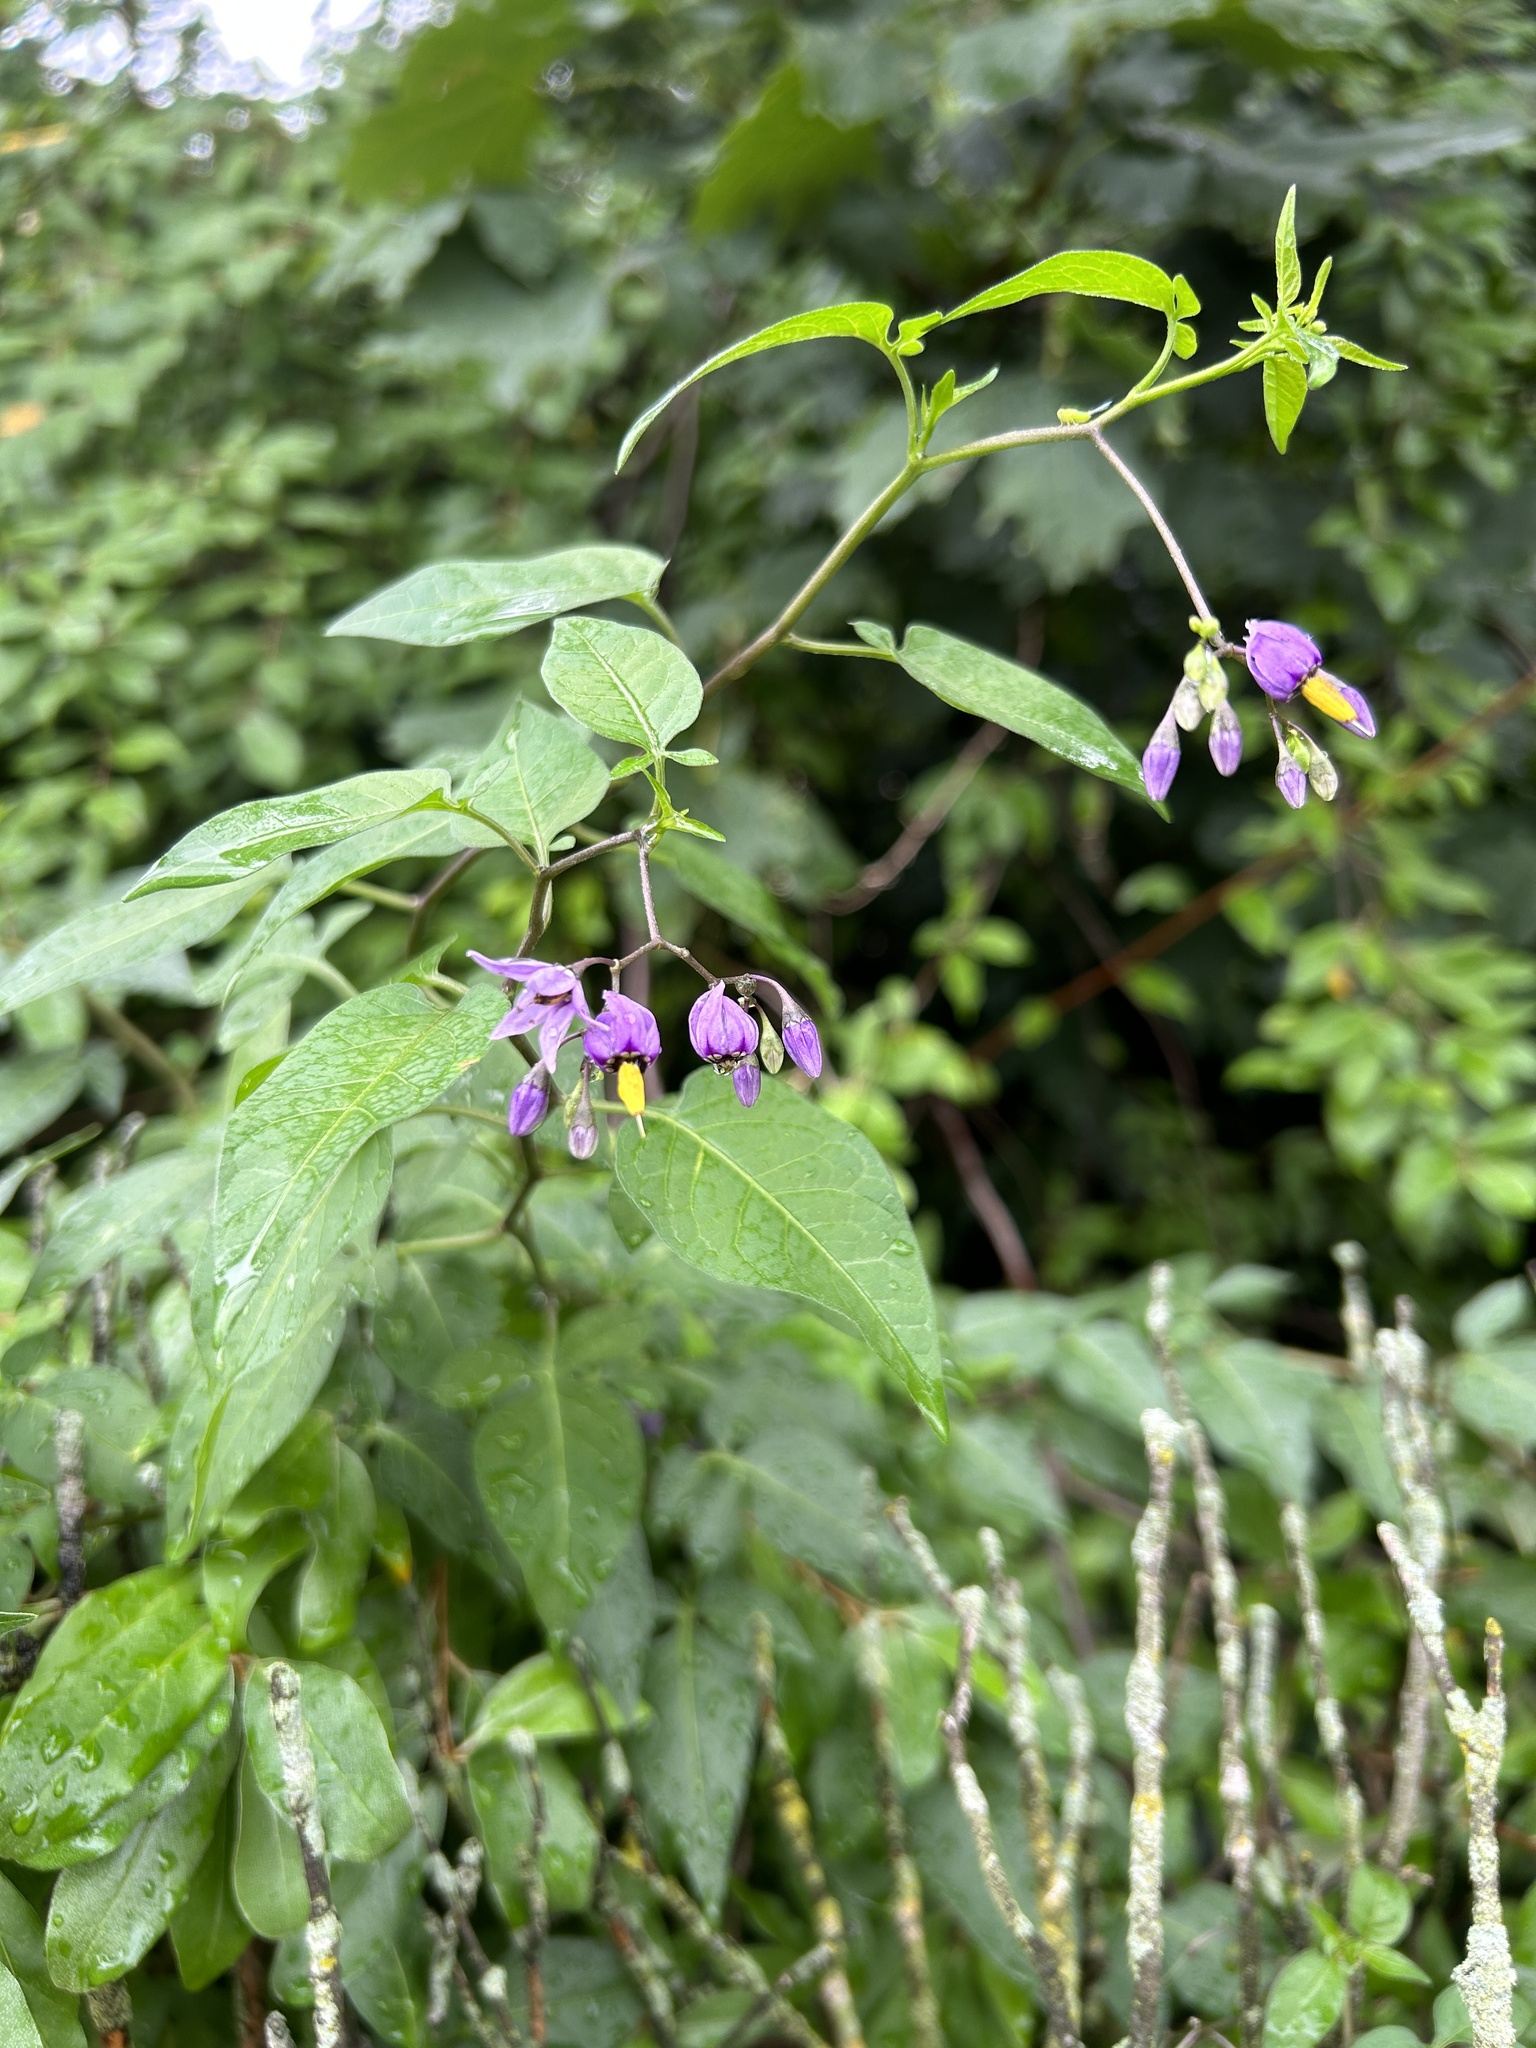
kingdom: Plantae
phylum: Tracheophyta
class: Magnoliopsida
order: Solanales
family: Solanaceae
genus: Solanum
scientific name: Solanum dulcamara
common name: Climbing nightshade
